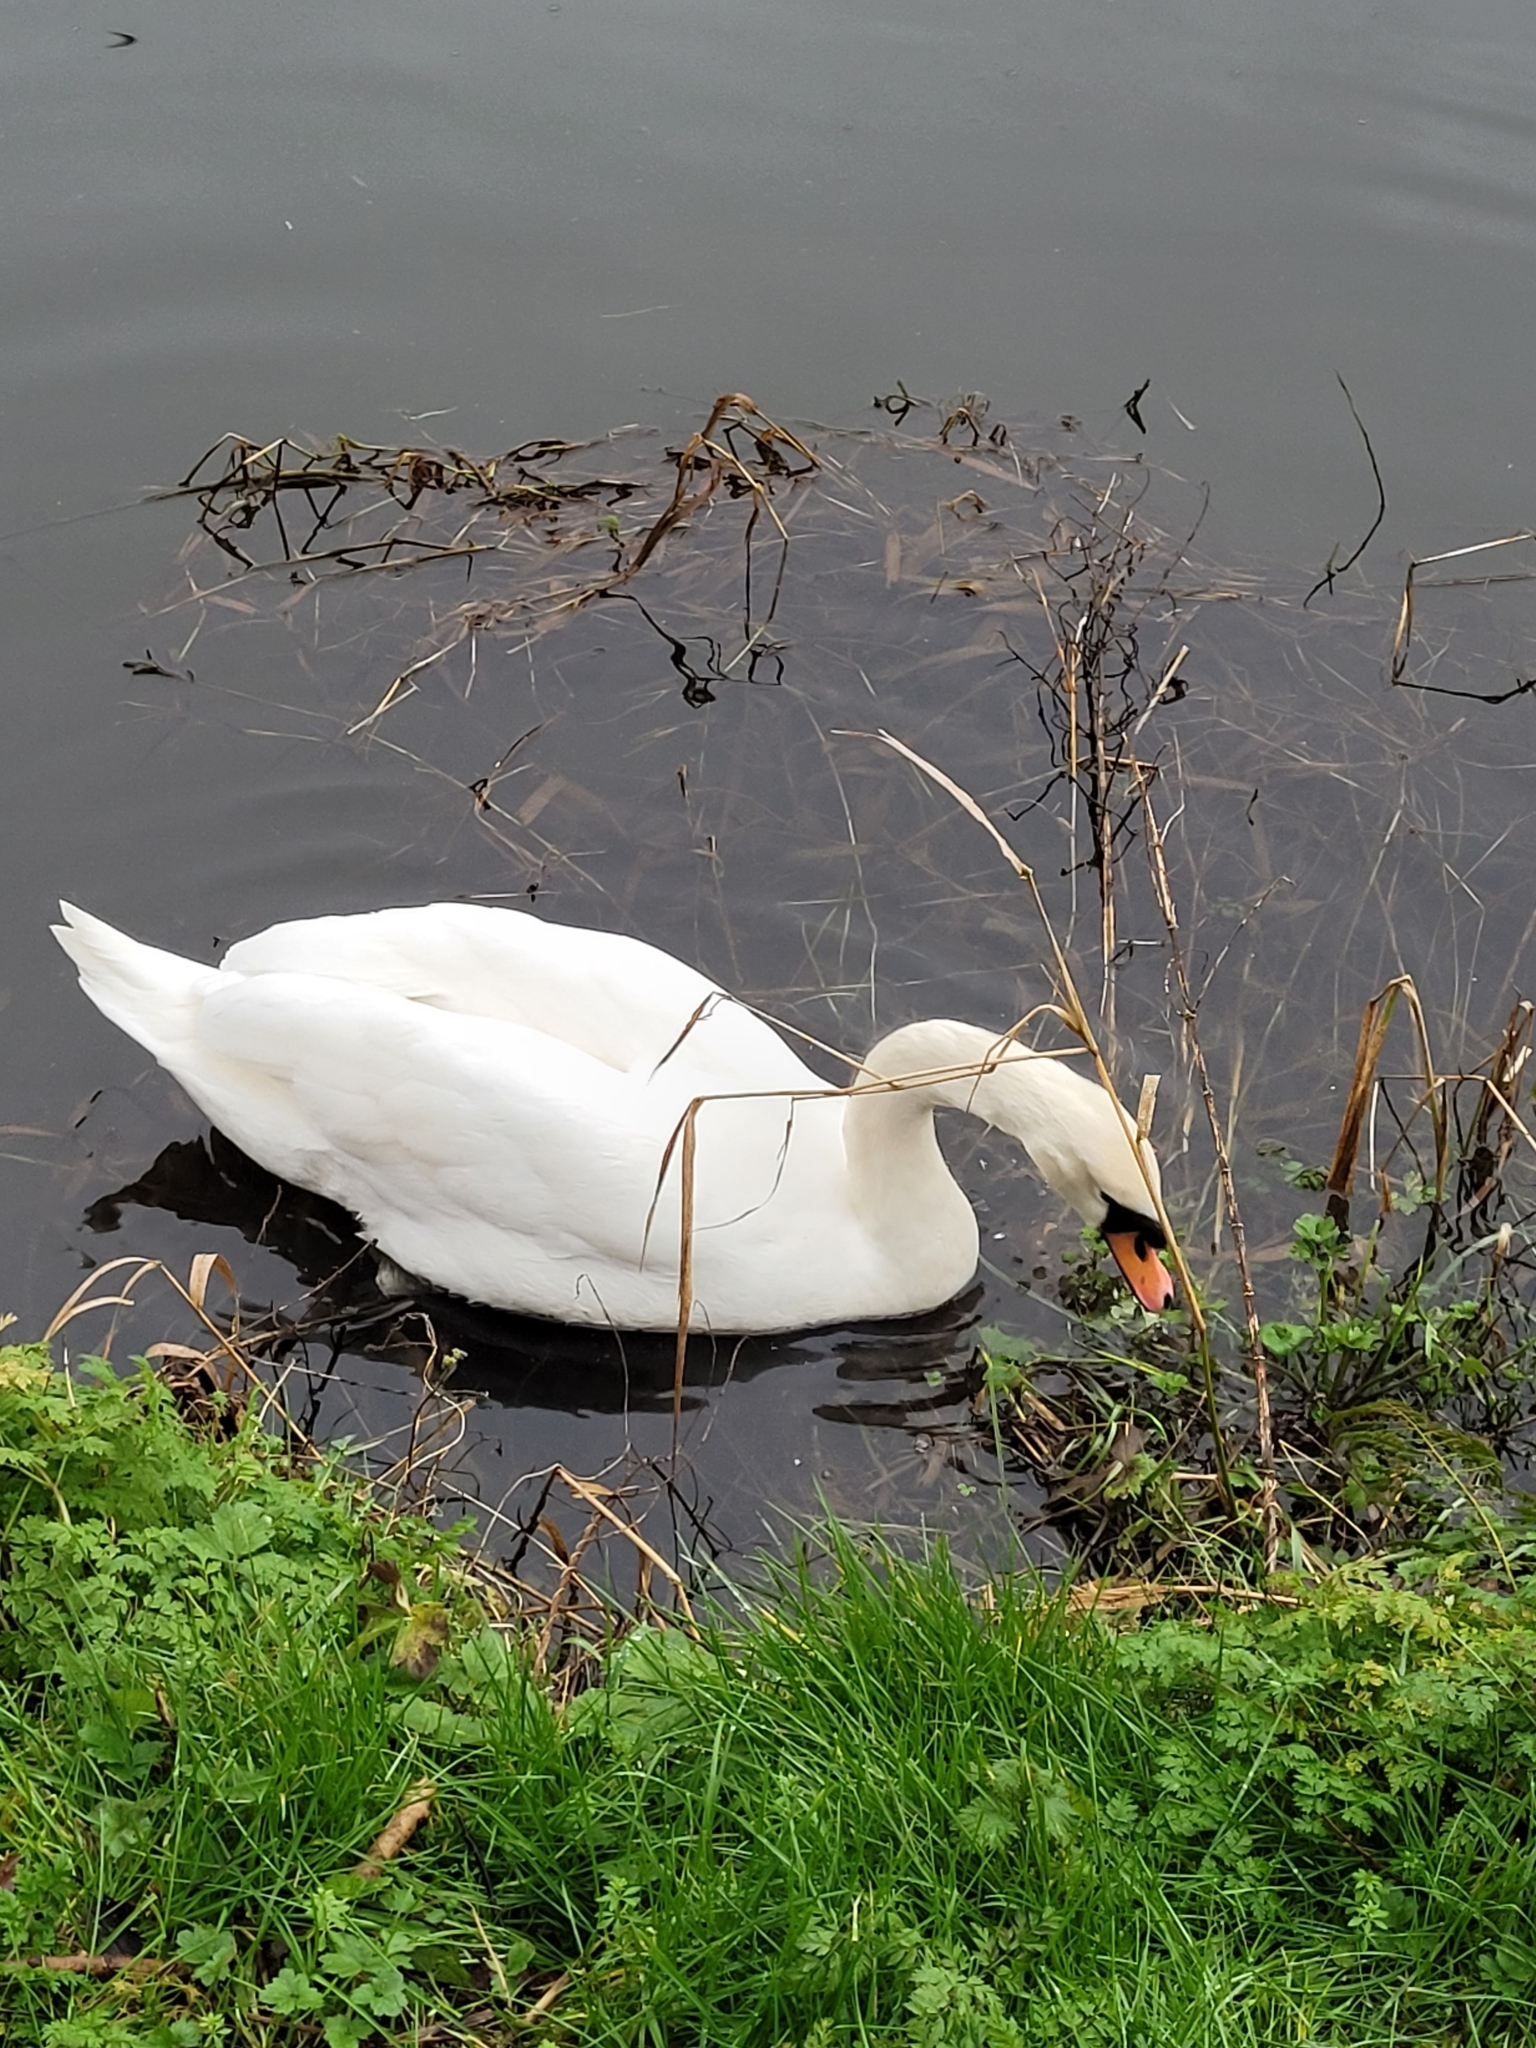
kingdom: Animalia
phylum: Chordata
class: Aves
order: Anseriformes
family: Anatidae
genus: Cygnus
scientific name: Cygnus olor
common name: Mute swan
